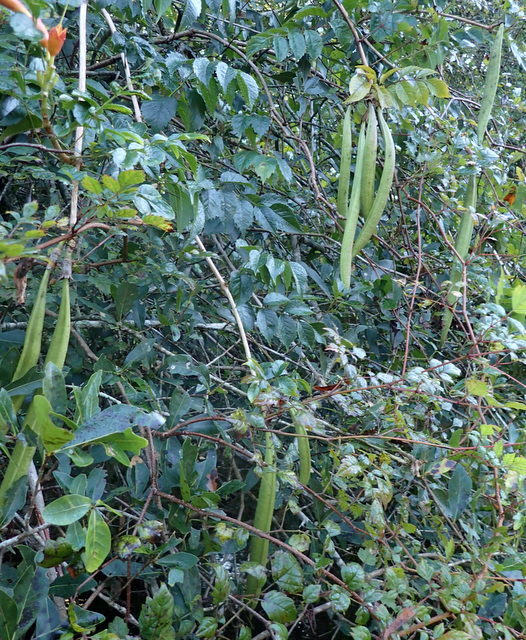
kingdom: Plantae
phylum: Tracheophyta
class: Magnoliopsida
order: Lamiales
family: Bignoniaceae
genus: Campsis
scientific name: Campsis radicans
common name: Trumpet-creeper
